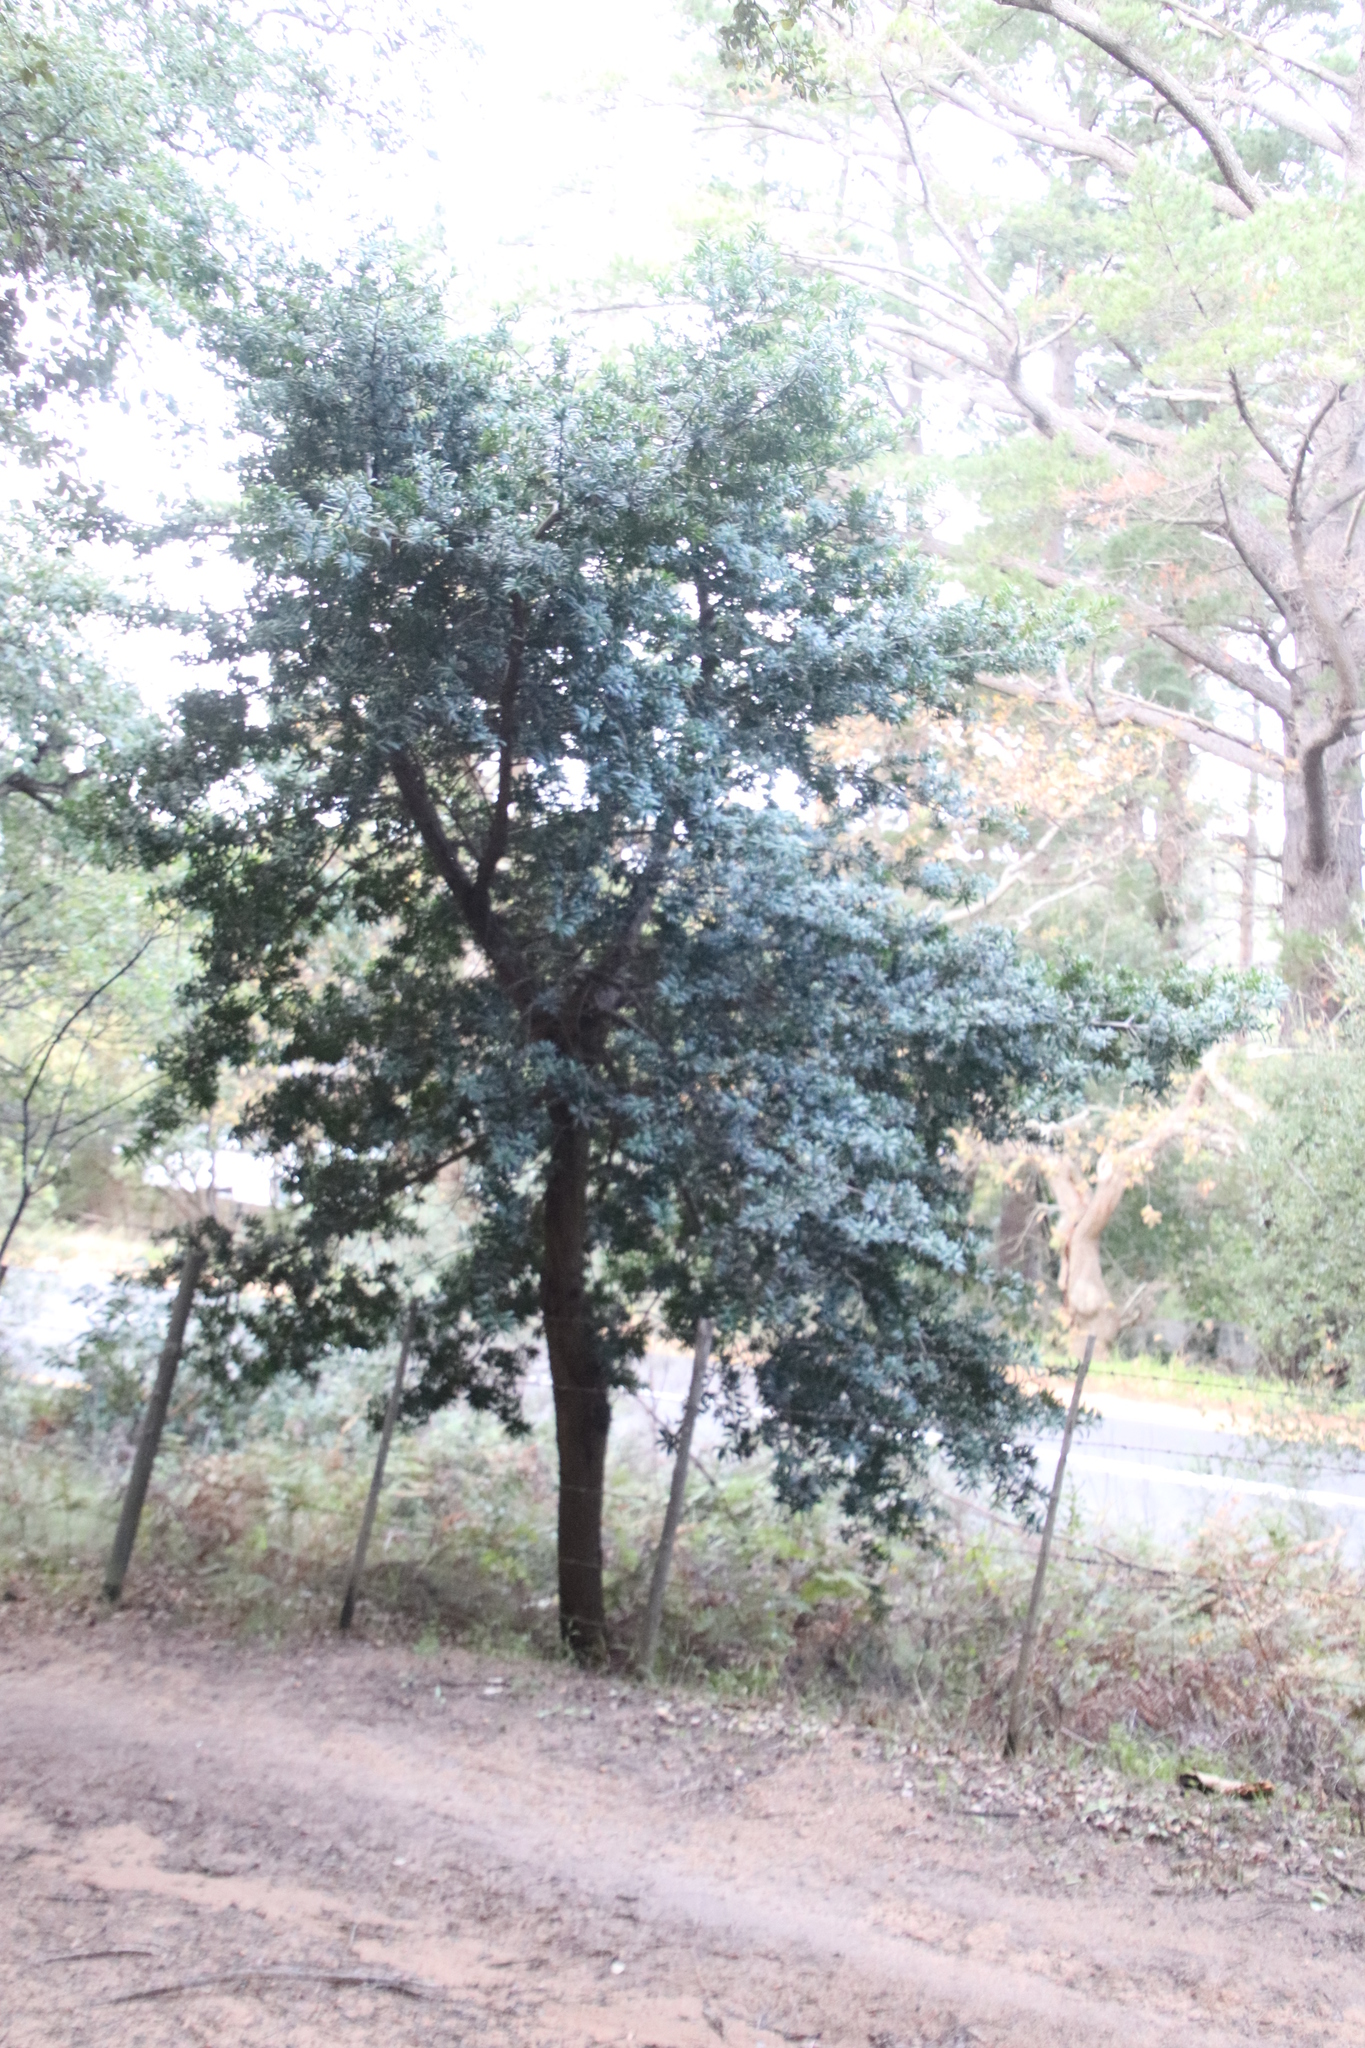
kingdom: Plantae
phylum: Tracheophyta
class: Pinopsida
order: Pinales
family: Podocarpaceae
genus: Podocarpus
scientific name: Podocarpus latifolius
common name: True yellowwood
